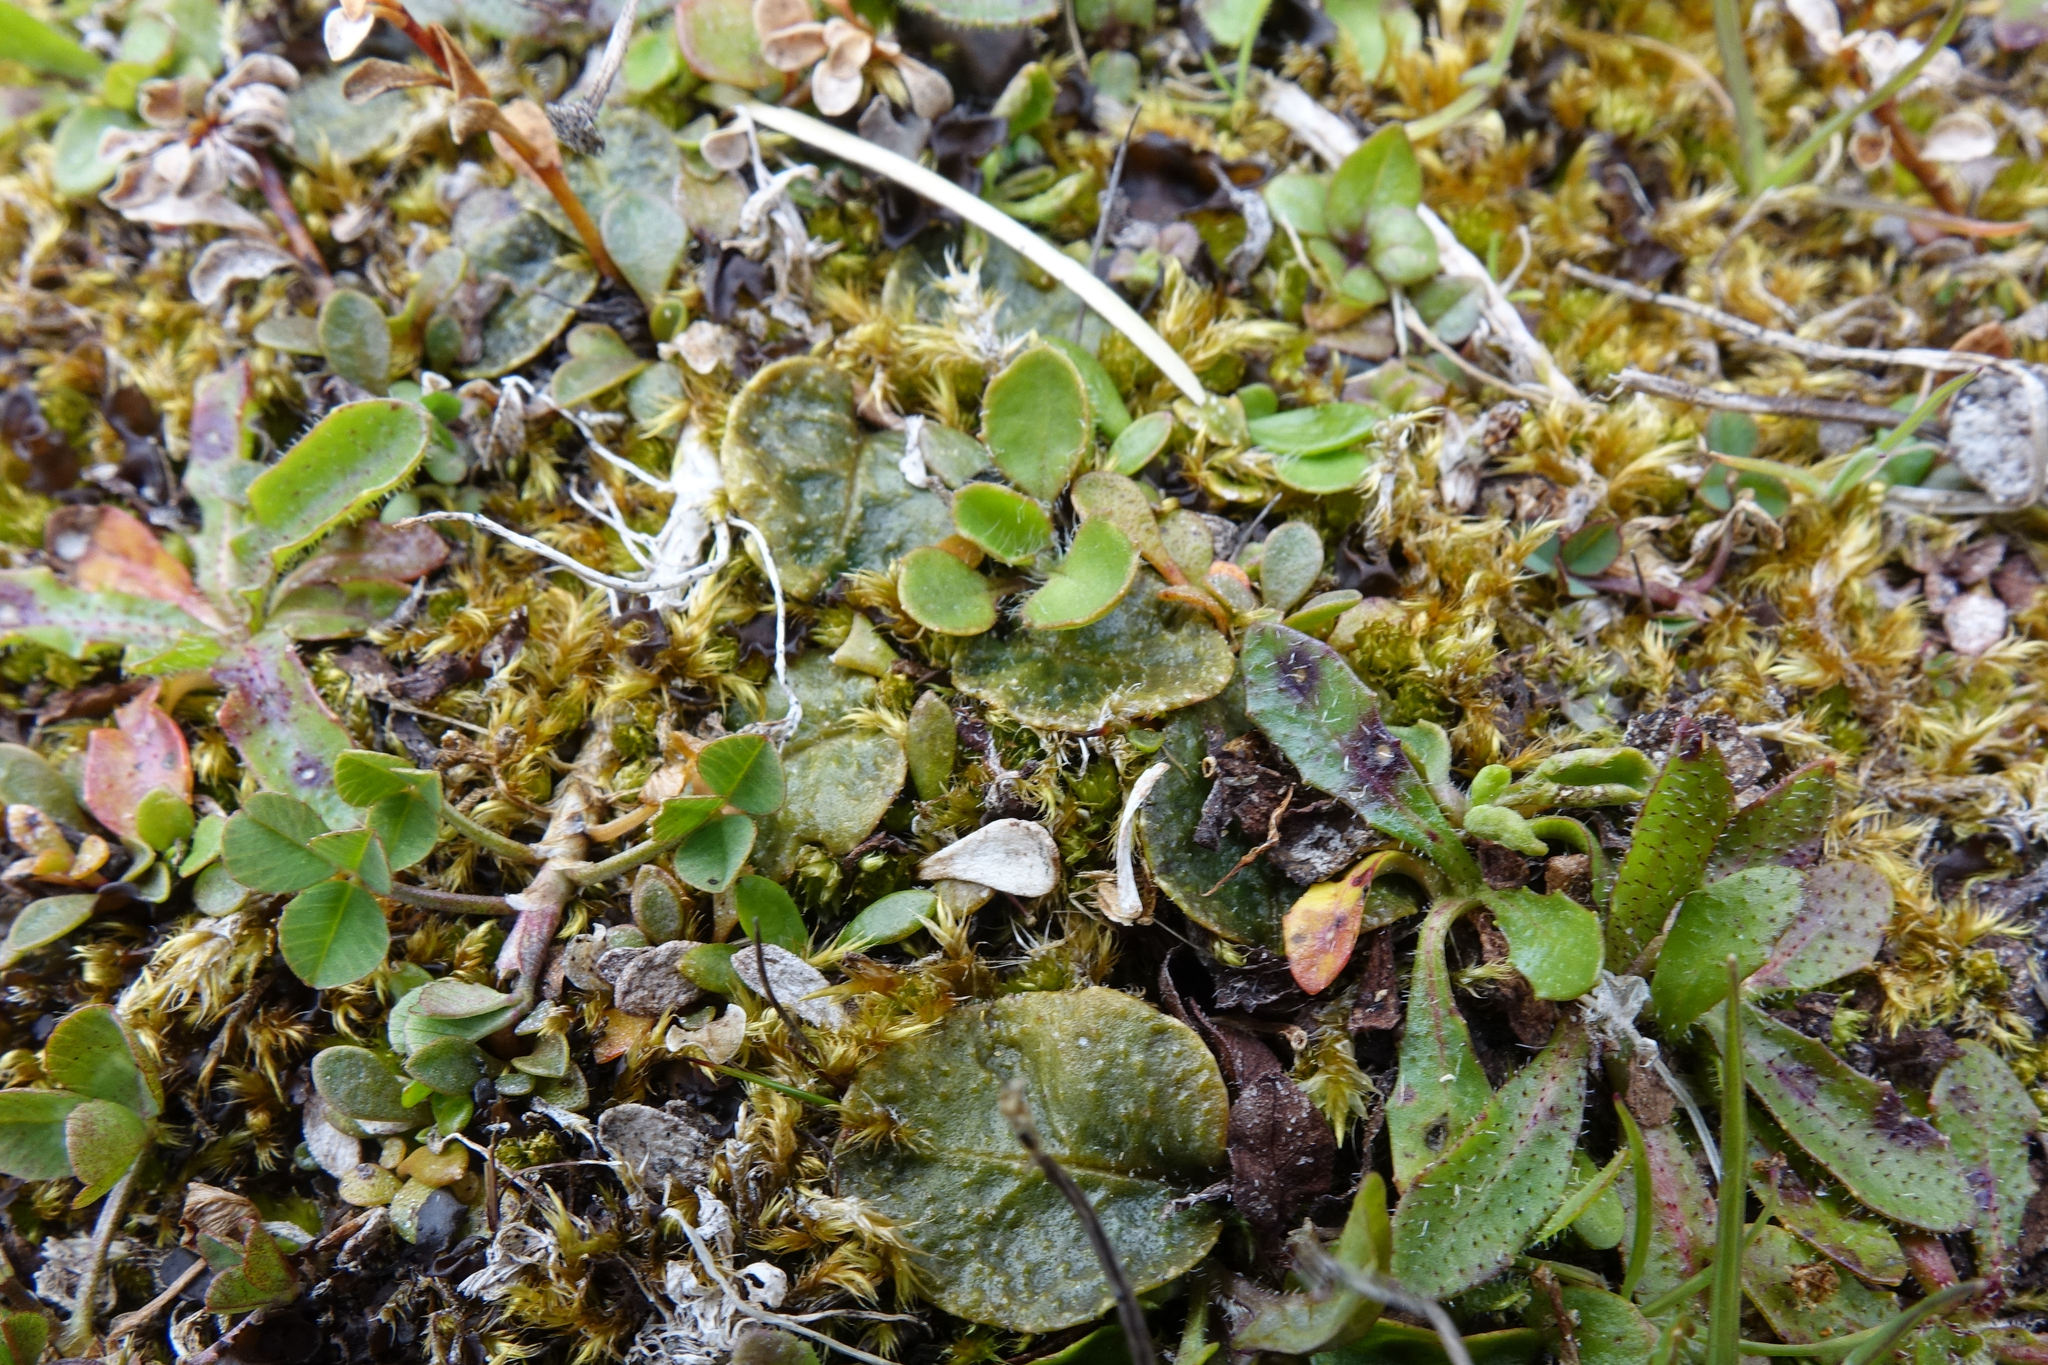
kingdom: Plantae
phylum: Tracheophyta
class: Magnoliopsida
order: Lamiales
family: Mazaceae
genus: Mazus
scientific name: Mazus arenarius
